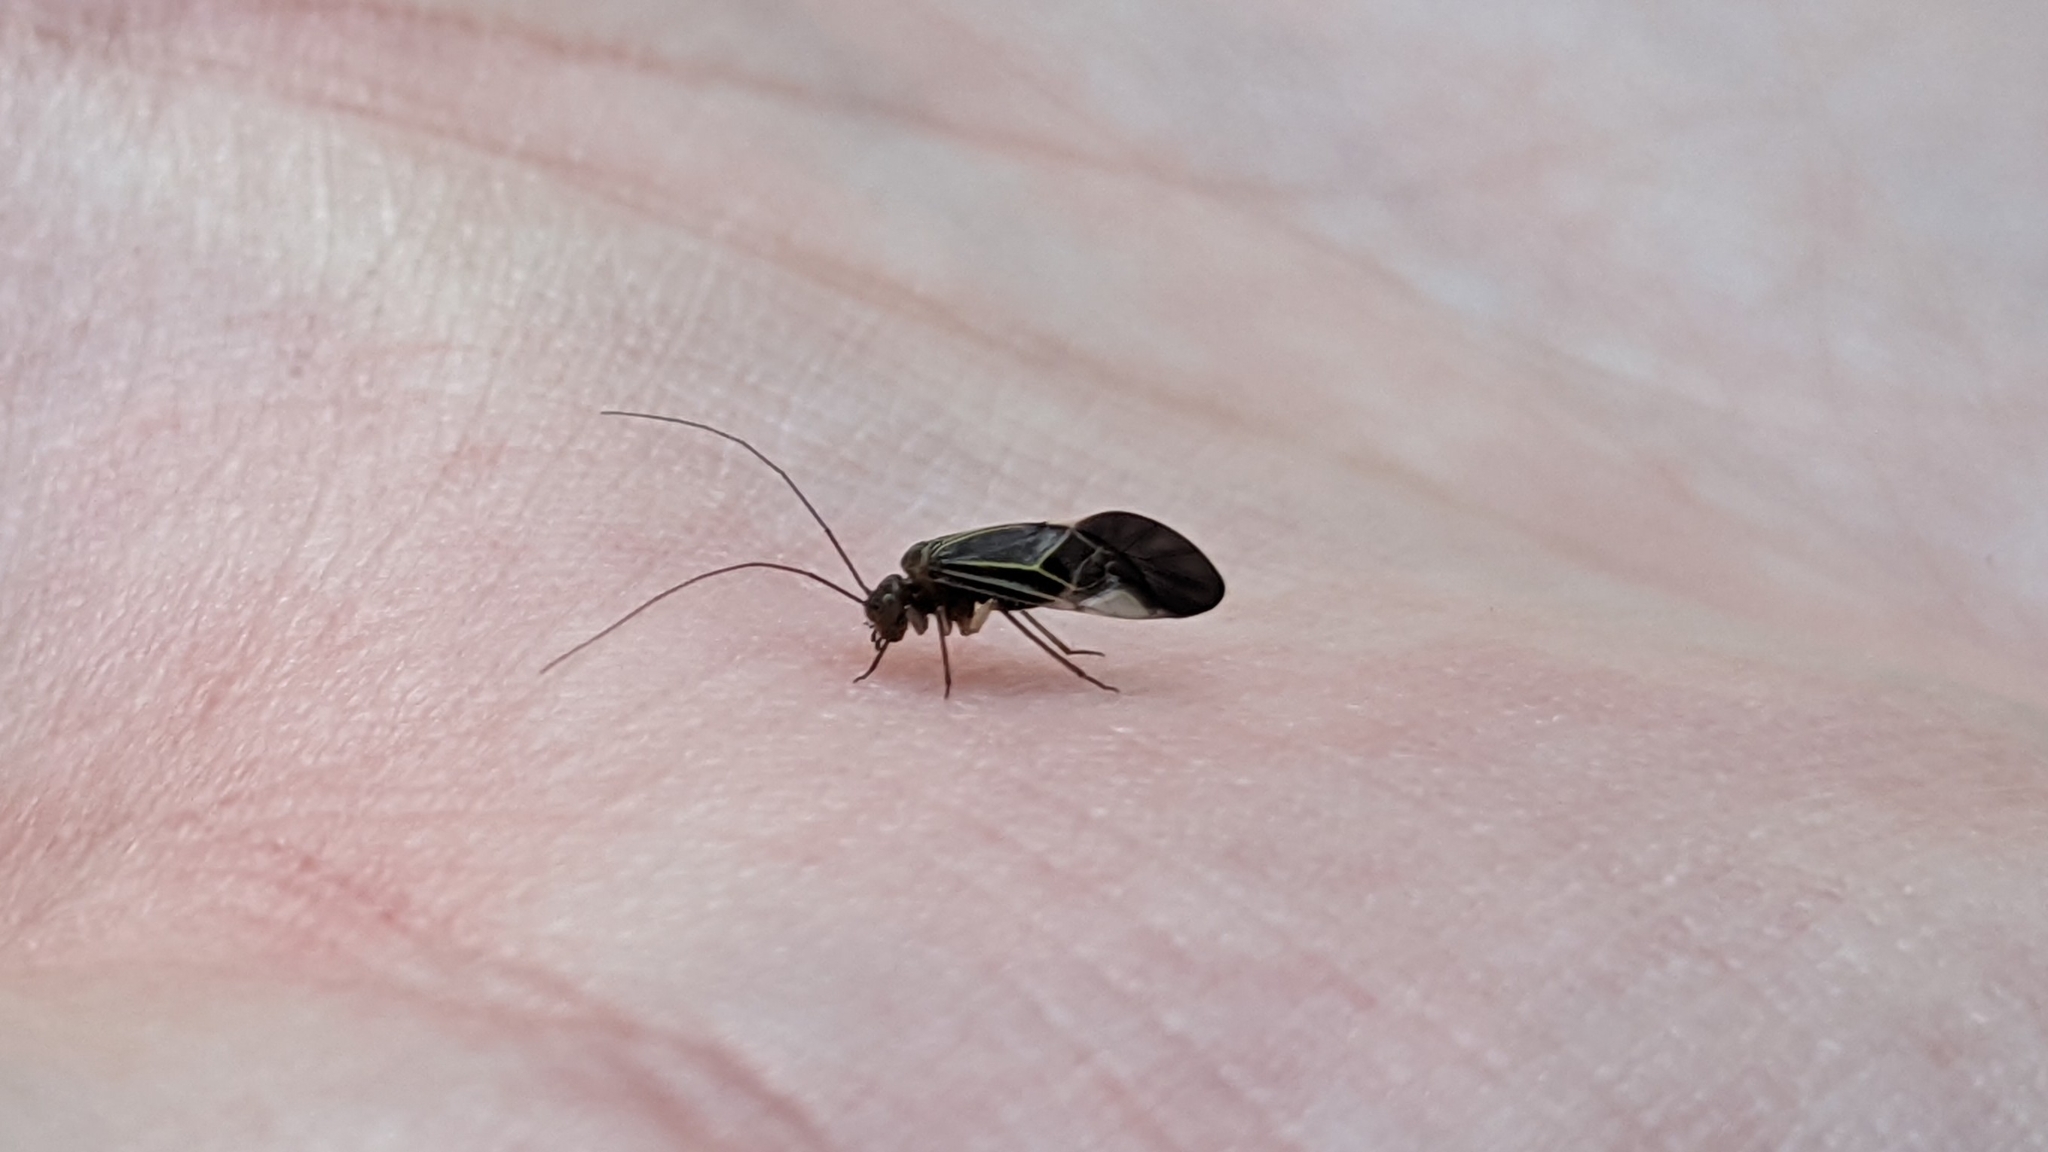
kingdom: Animalia
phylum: Arthropoda
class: Insecta
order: Psocodea
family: Psocidae
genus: Cerastipsocus
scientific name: Cerastipsocus venosus
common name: Tree cattle
